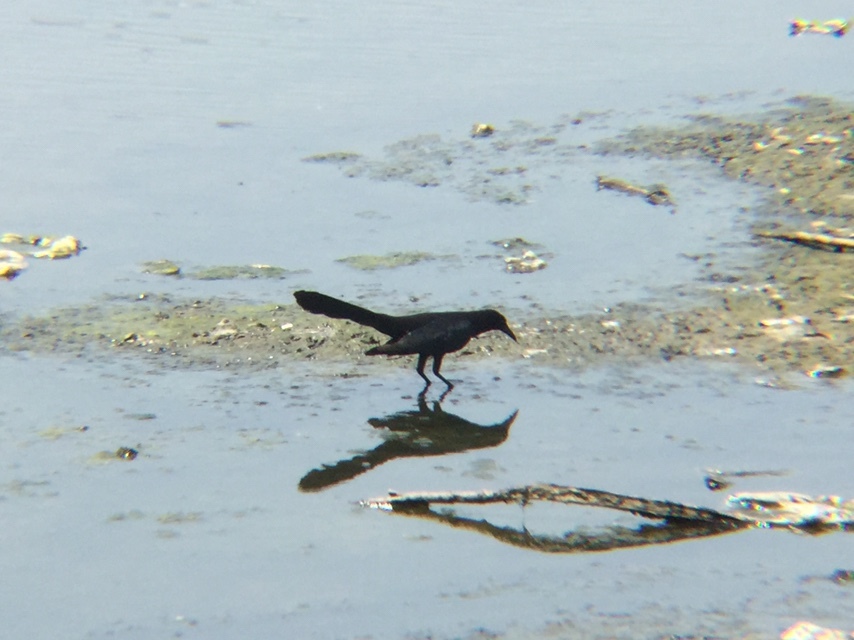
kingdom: Animalia
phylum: Chordata
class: Aves
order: Passeriformes
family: Icteridae
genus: Quiscalus
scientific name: Quiscalus mexicanus
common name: Great-tailed grackle
